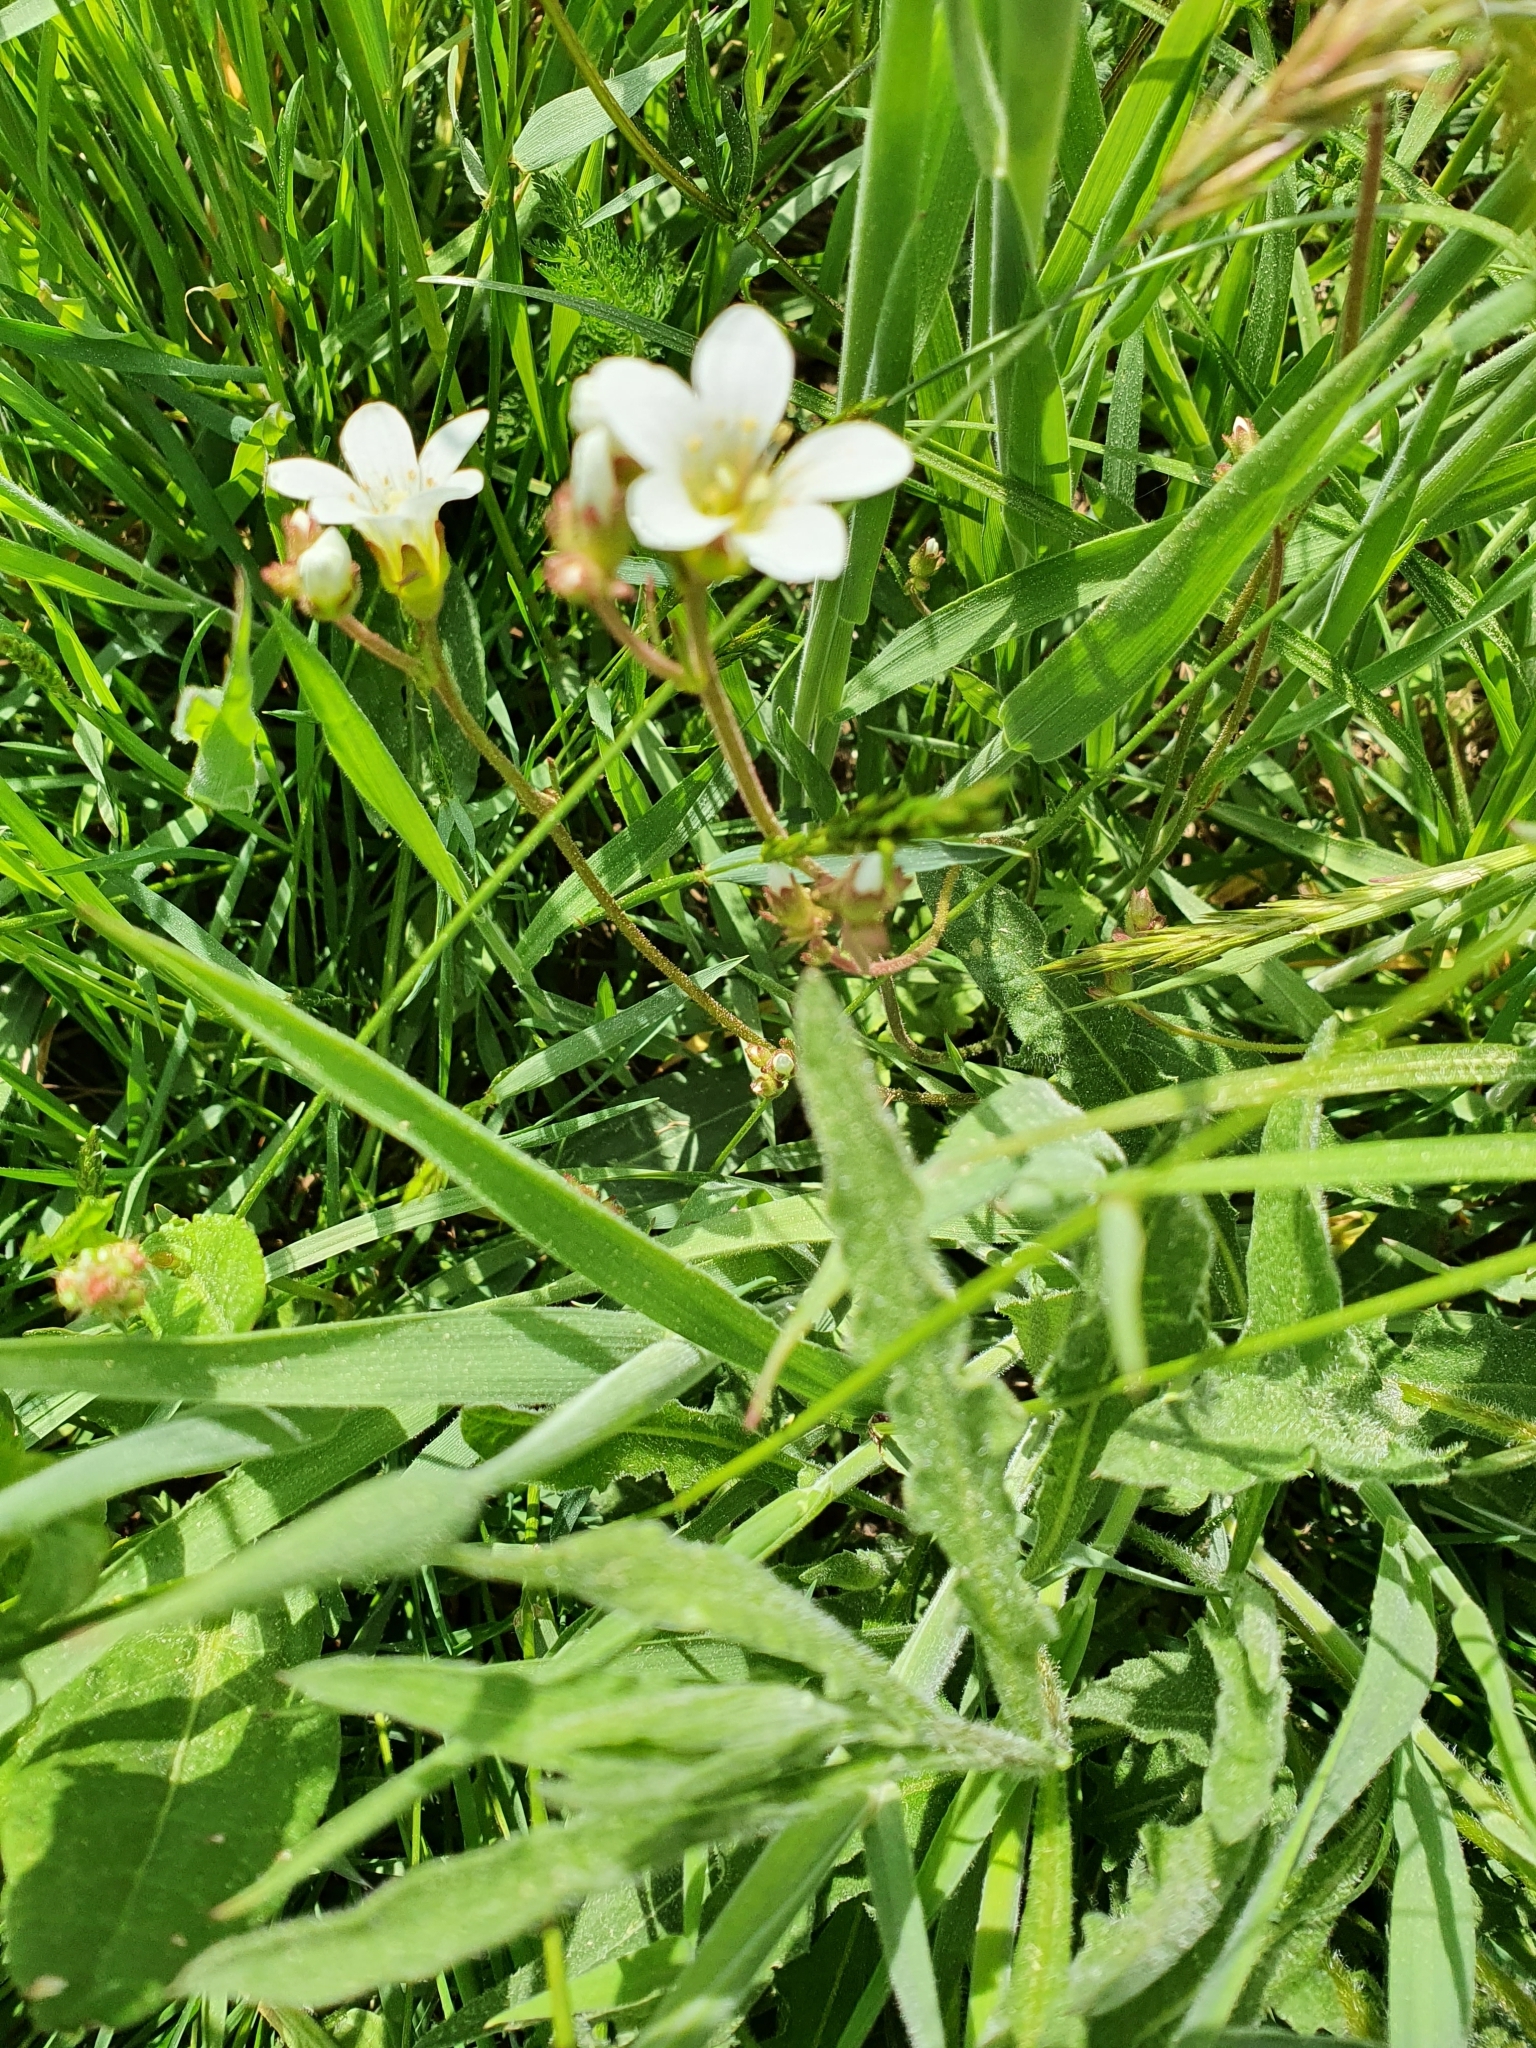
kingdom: Plantae
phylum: Tracheophyta
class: Magnoliopsida
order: Saxifragales
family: Saxifragaceae
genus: Saxifraga
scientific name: Saxifraga granulata
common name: Meadow saxifrage
